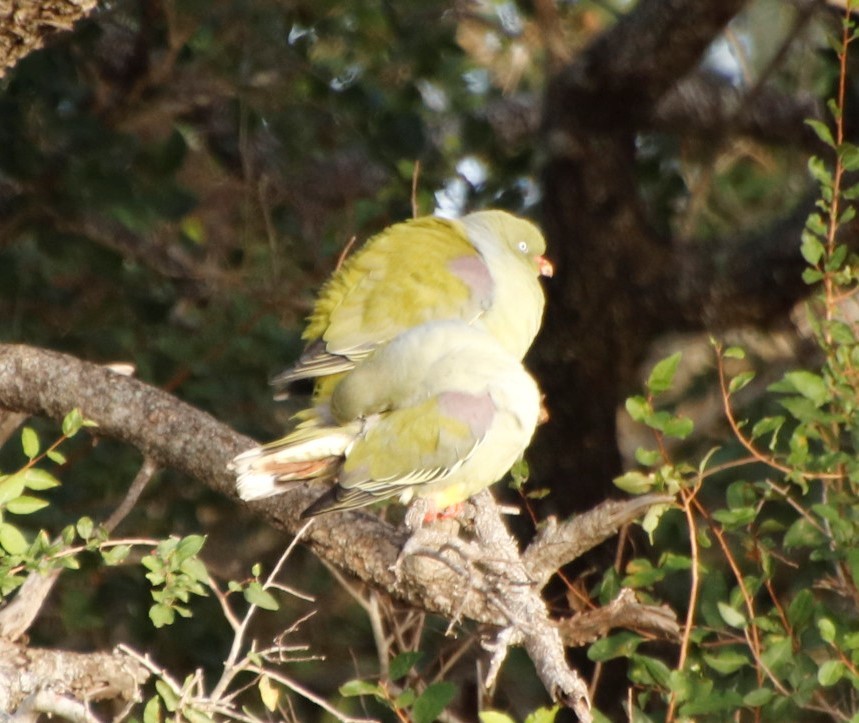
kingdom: Animalia
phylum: Chordata
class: Aves
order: Columbiformes
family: Columbidae
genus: Treron
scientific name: Treron calvus
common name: African green pigeon
